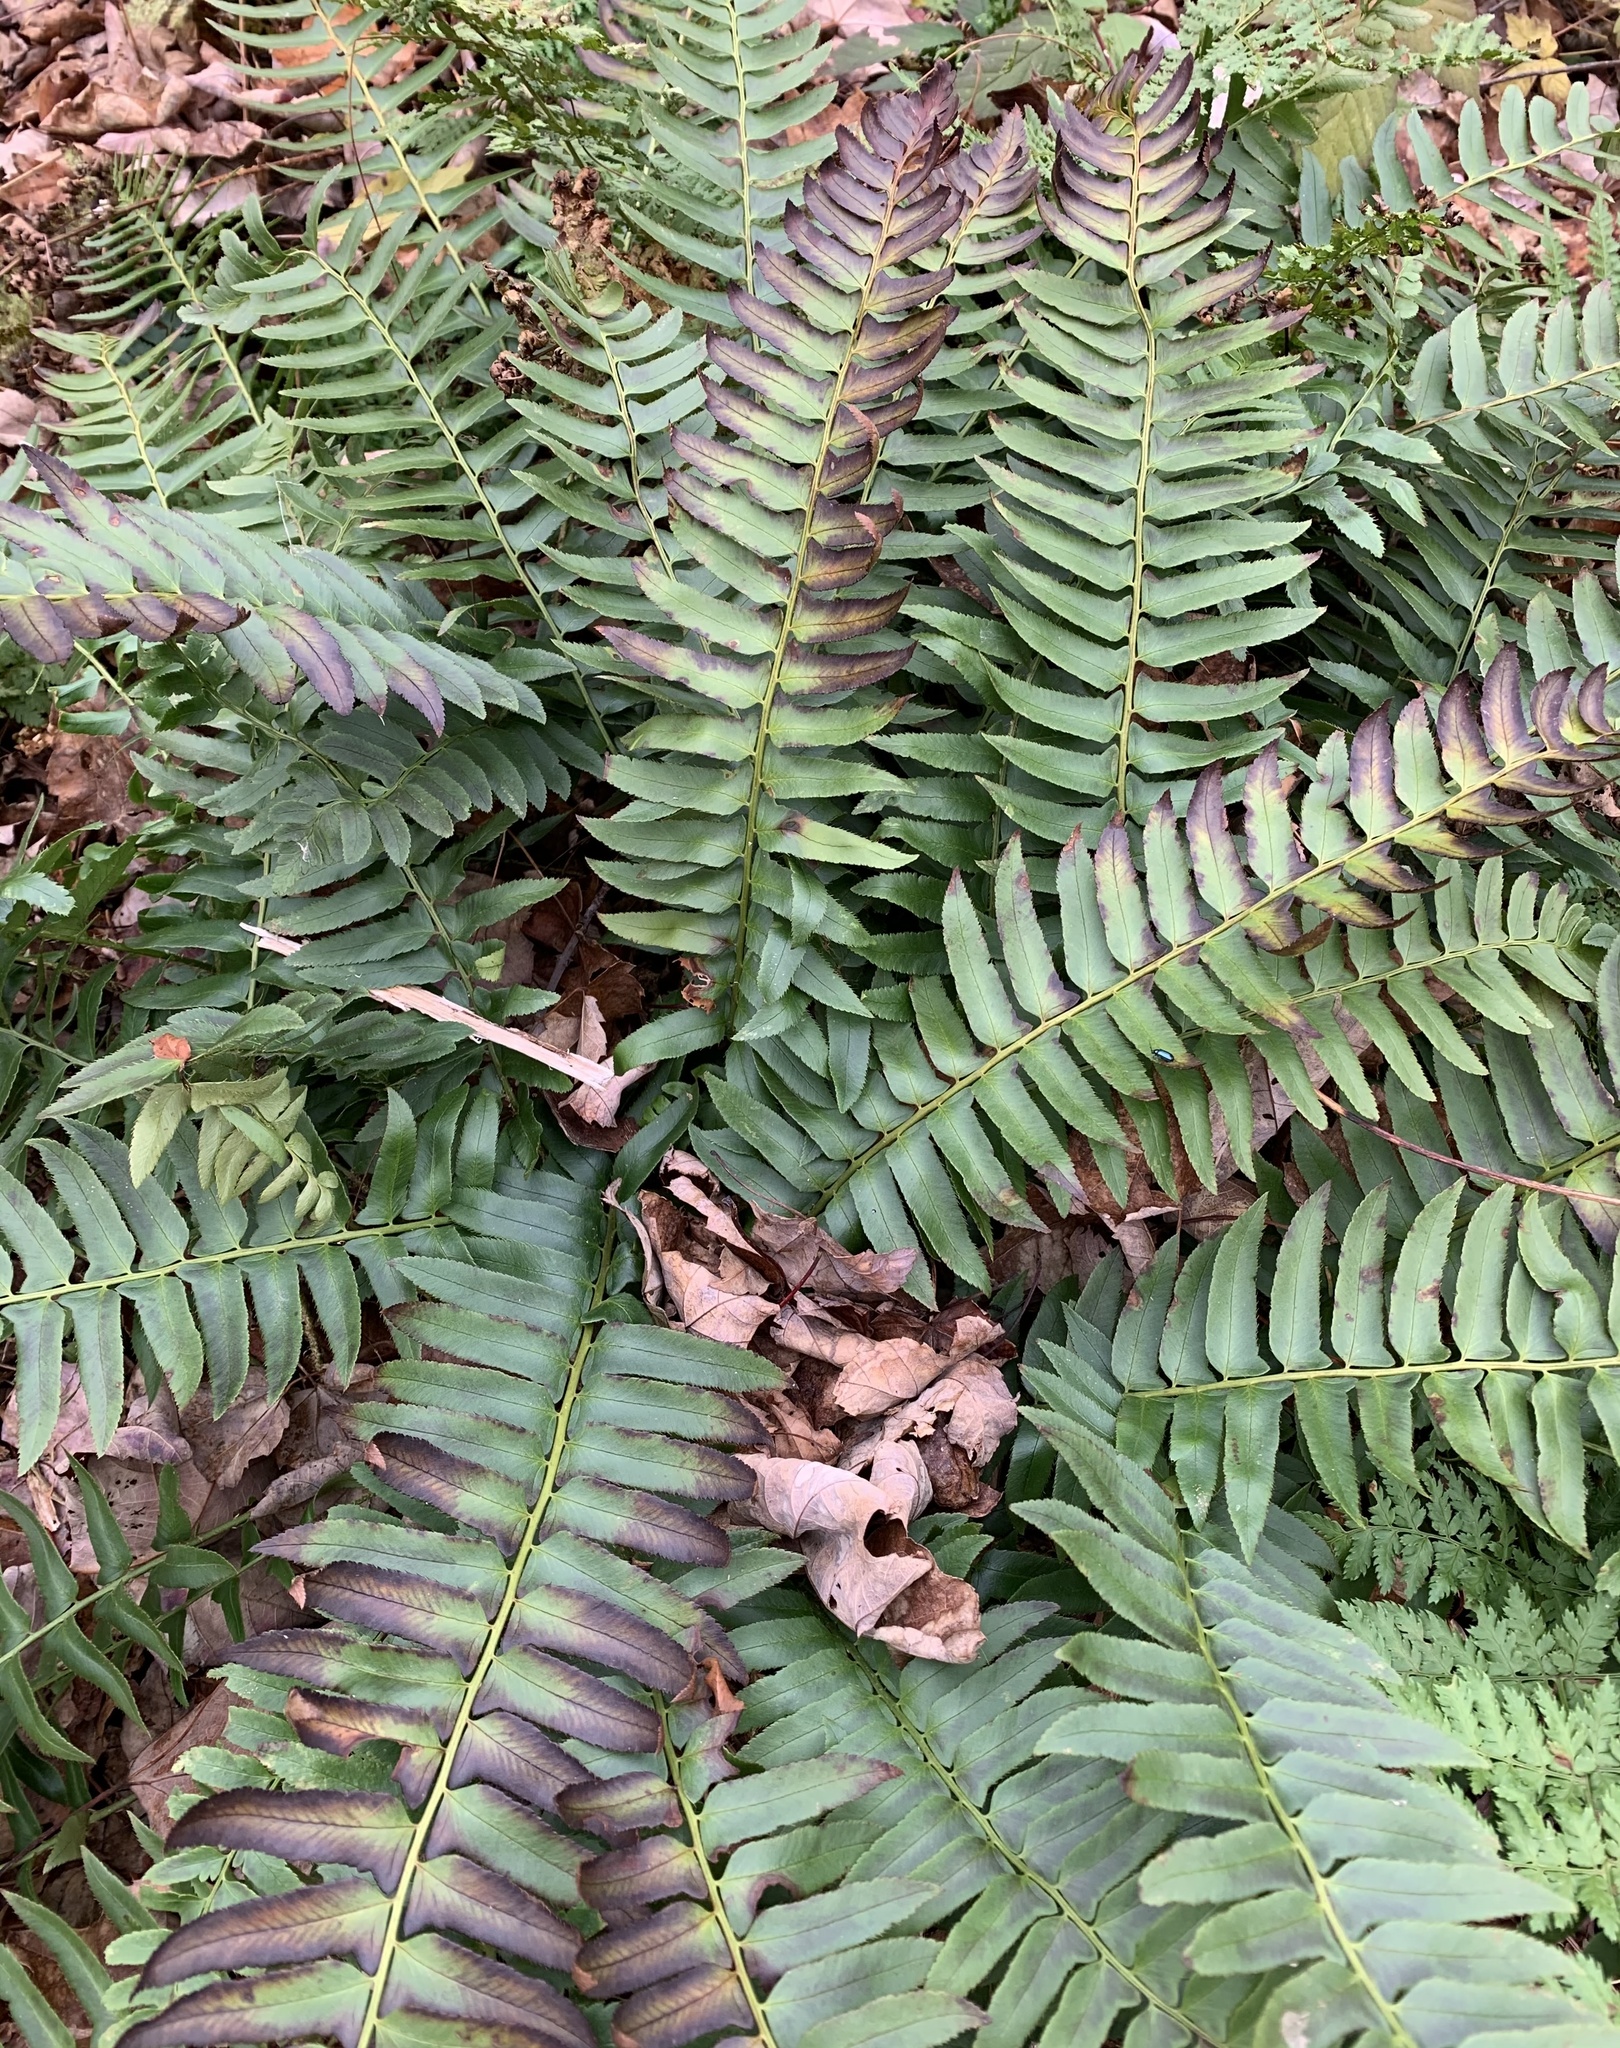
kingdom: Plantae
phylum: Tracheophyta
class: Polypodiopsida
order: Polypodiales
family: Dryopteridaceae
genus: Polystichum
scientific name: Polystichum acrostichoides
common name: Christmas fern
